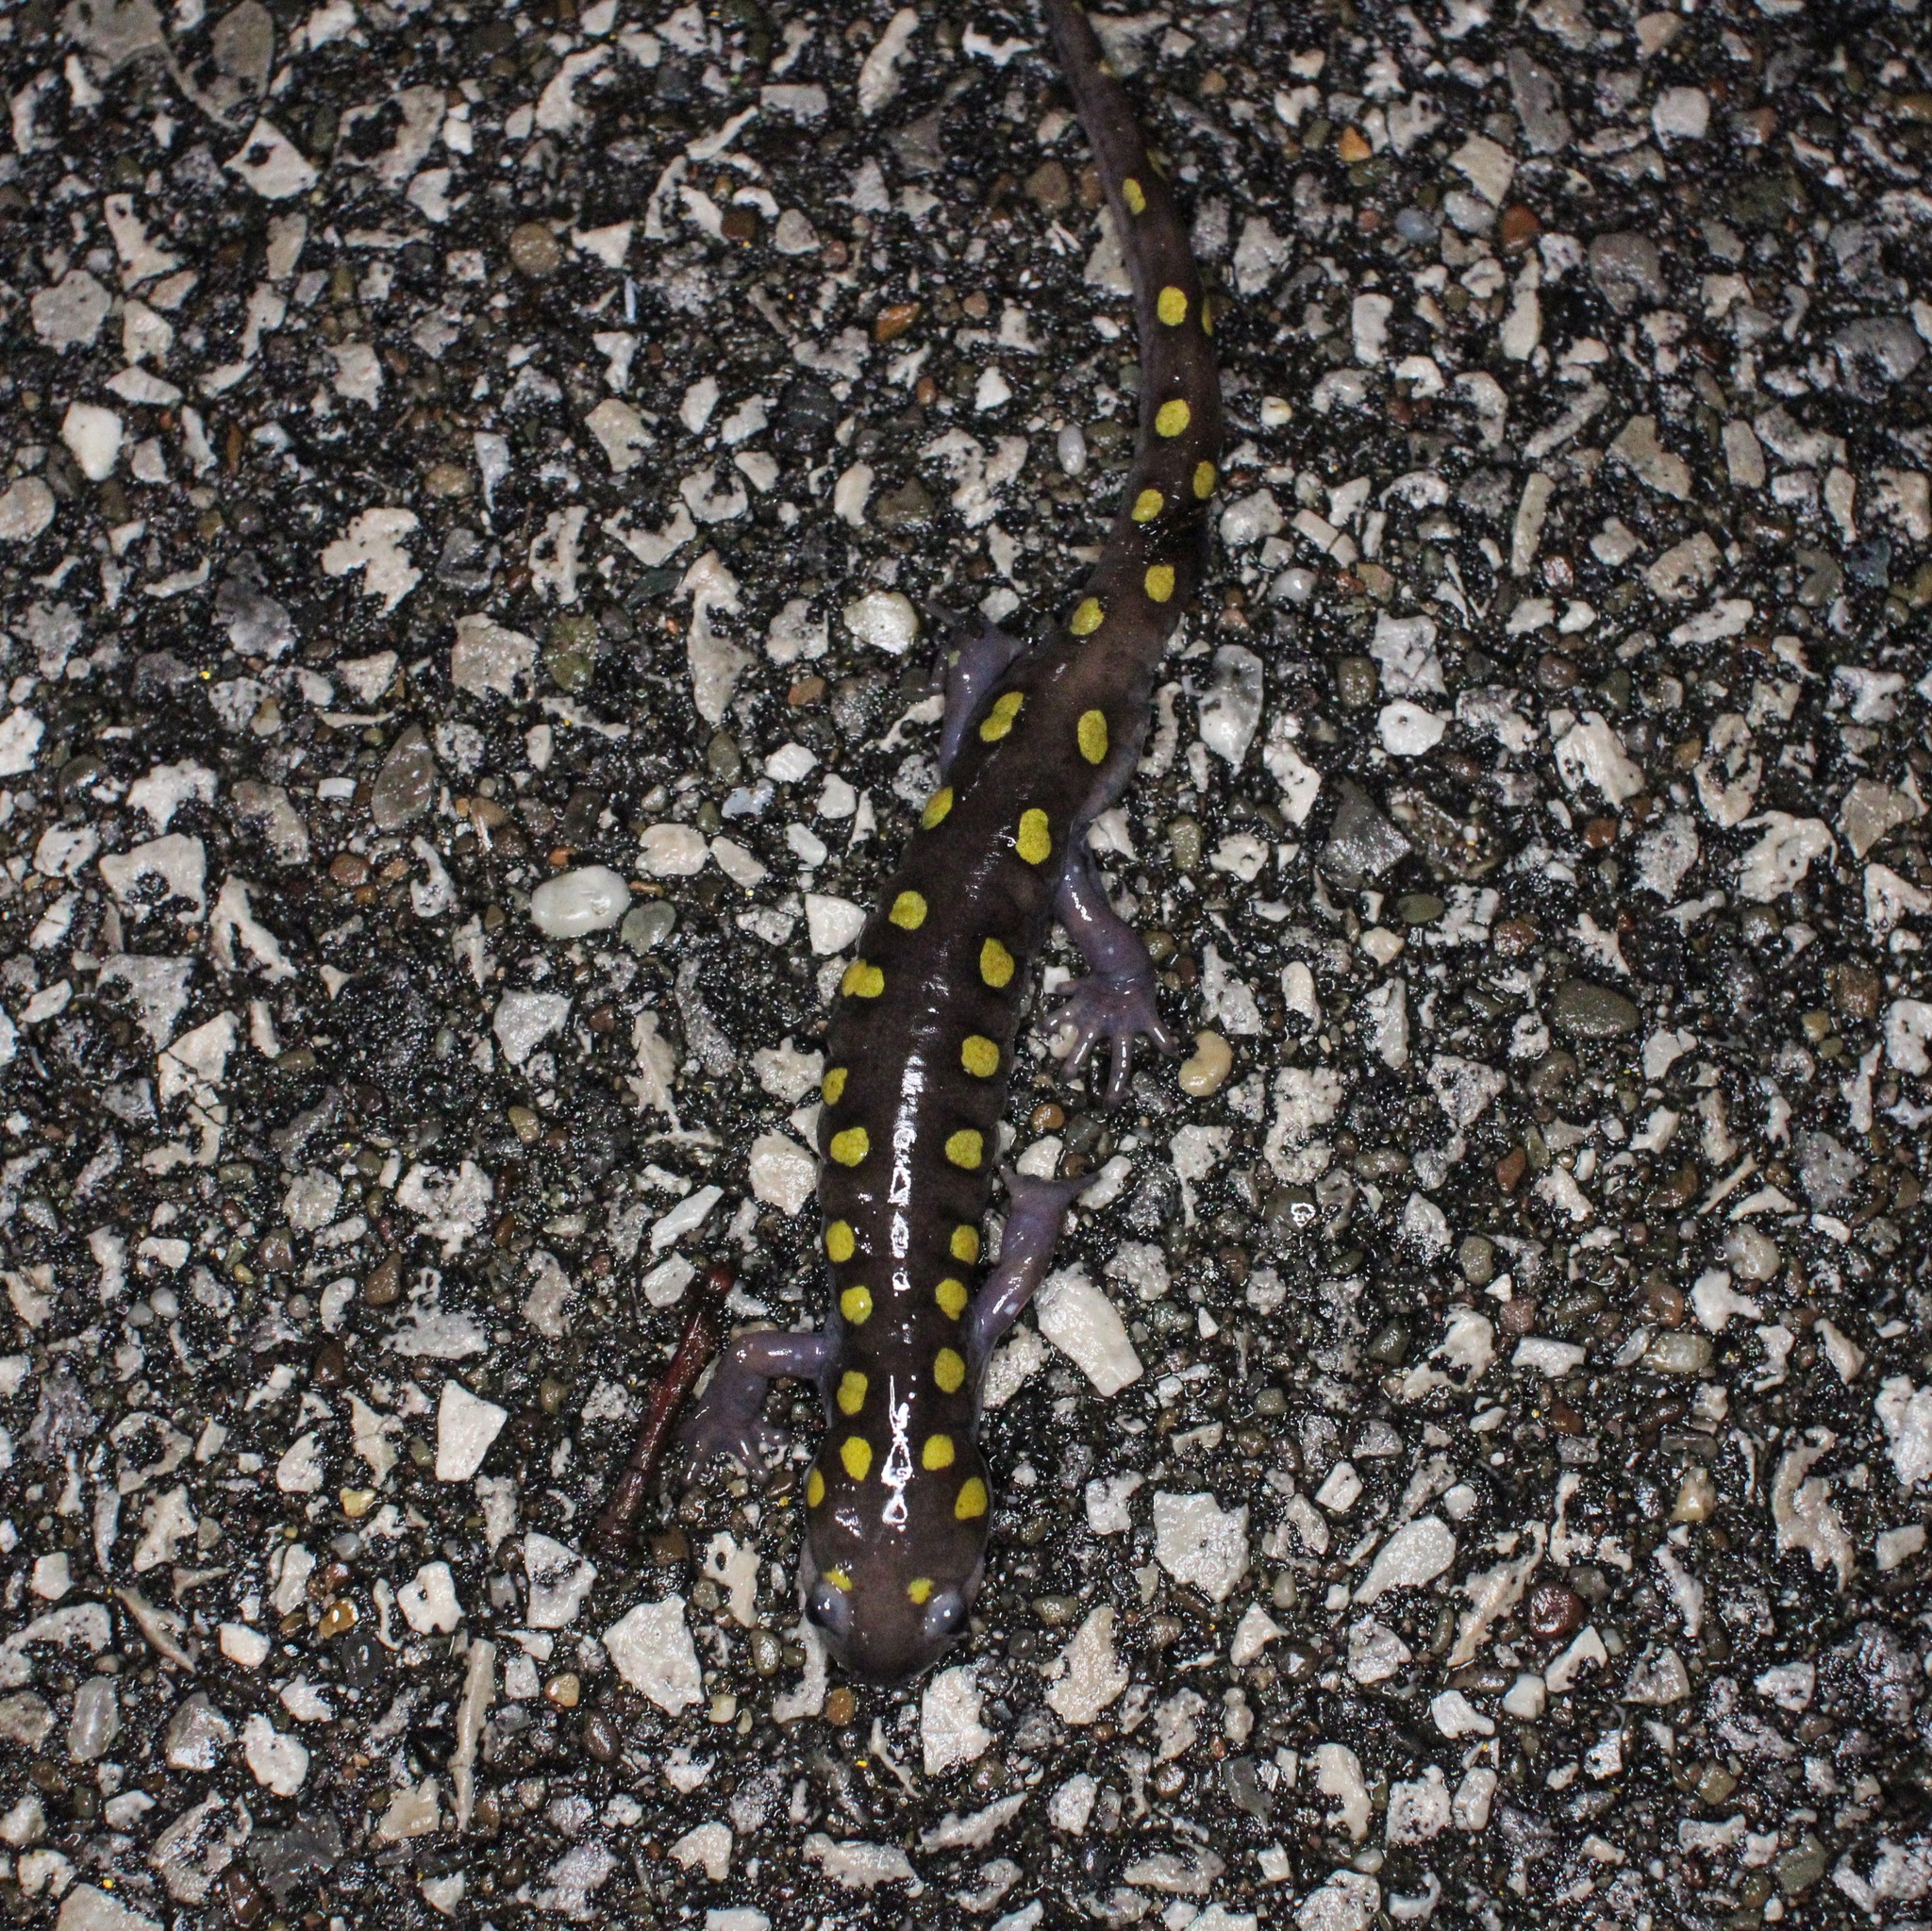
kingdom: Animalia
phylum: Chordata
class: Amphibia
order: Caudata
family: Ambystomatidae
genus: Ambystoma
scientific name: Ambystoma maculatum
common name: Spotted salamander
